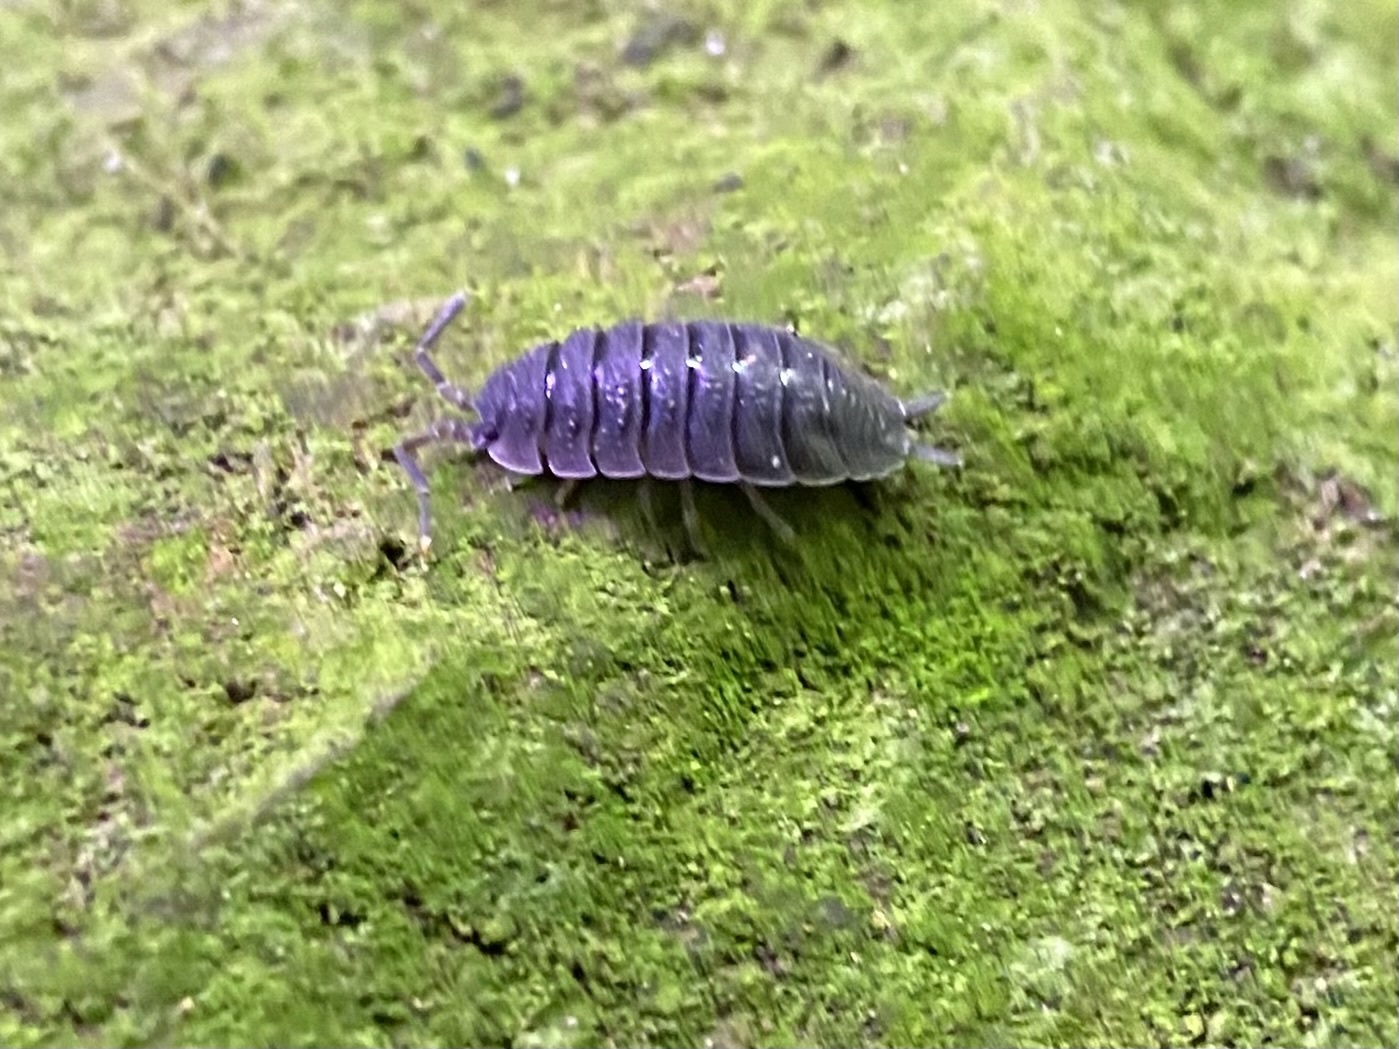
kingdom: Animalia
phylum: Arthropoda
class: Malacostraca
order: Isopoda
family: Porcellionidae
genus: Porcellio
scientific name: Porcellio scaber
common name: Common rough woodlouse
